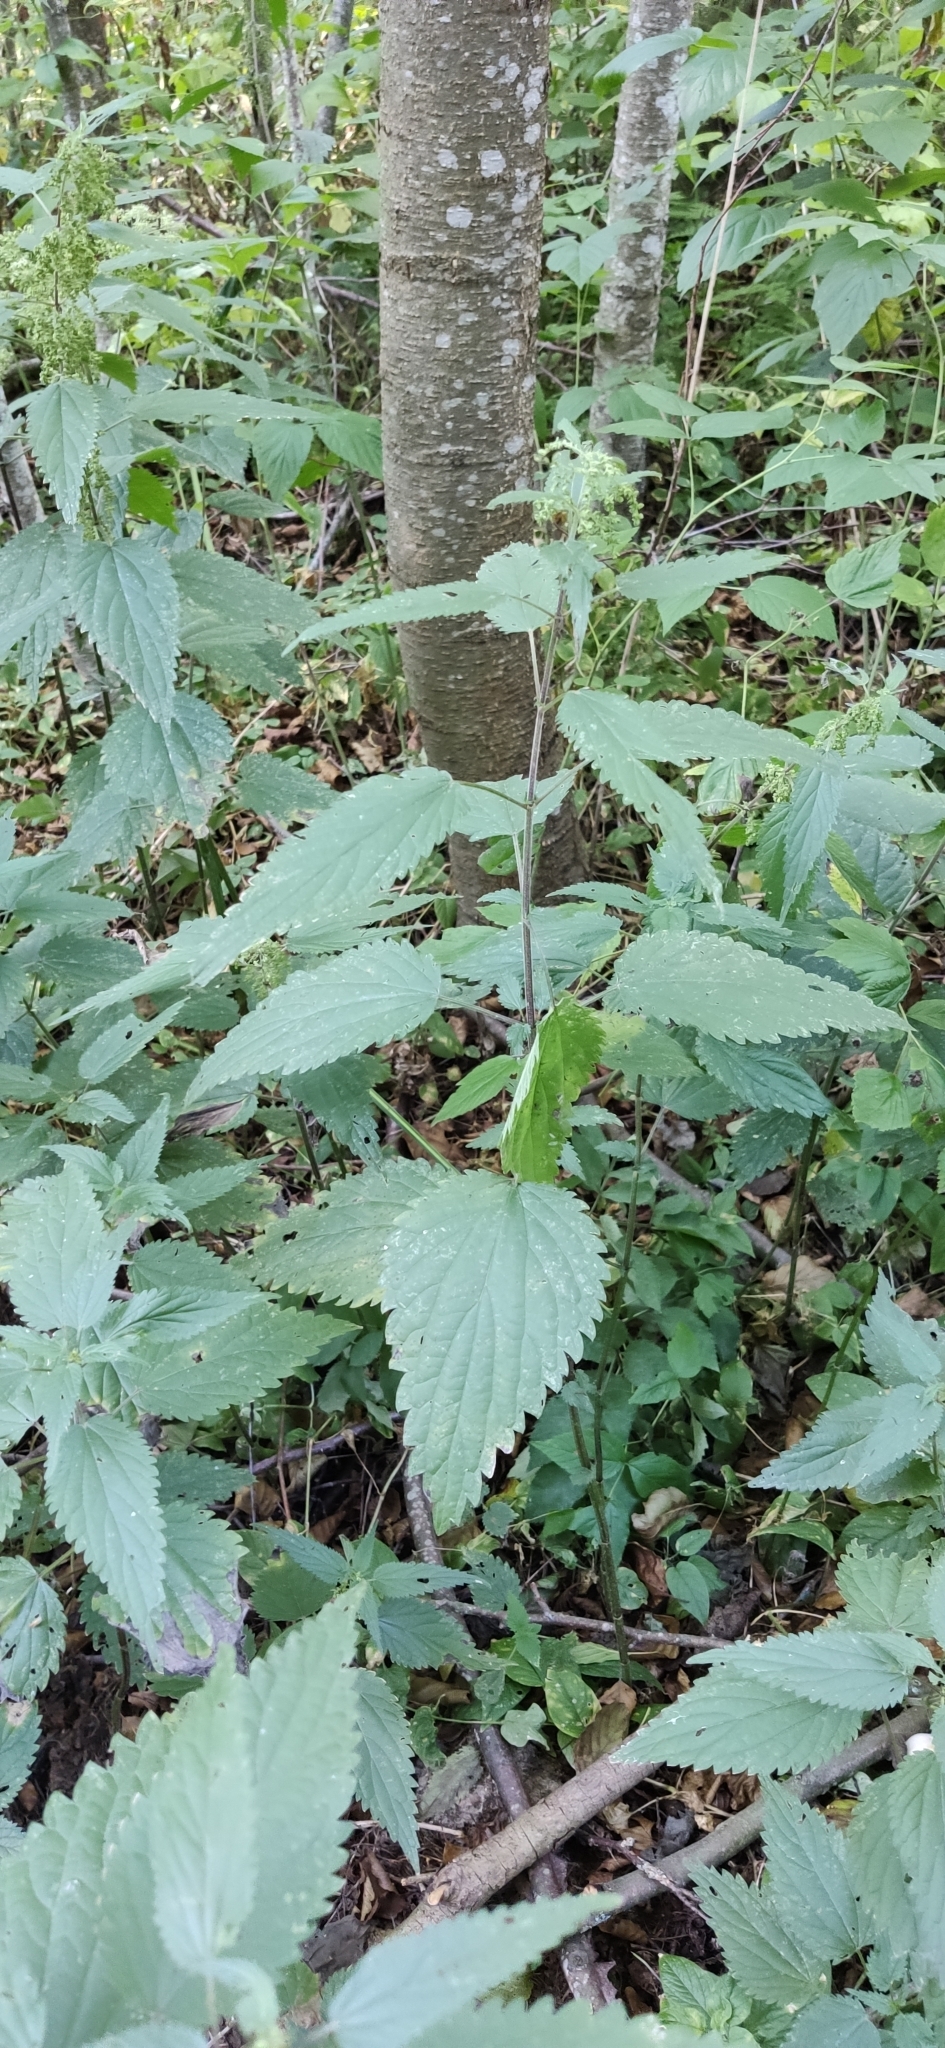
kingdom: Plantae
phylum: Tracheophyta
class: Magnoliopsida
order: Rosales
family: Urticaceae
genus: Urtica
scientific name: Urtica dioica
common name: Common nettle
